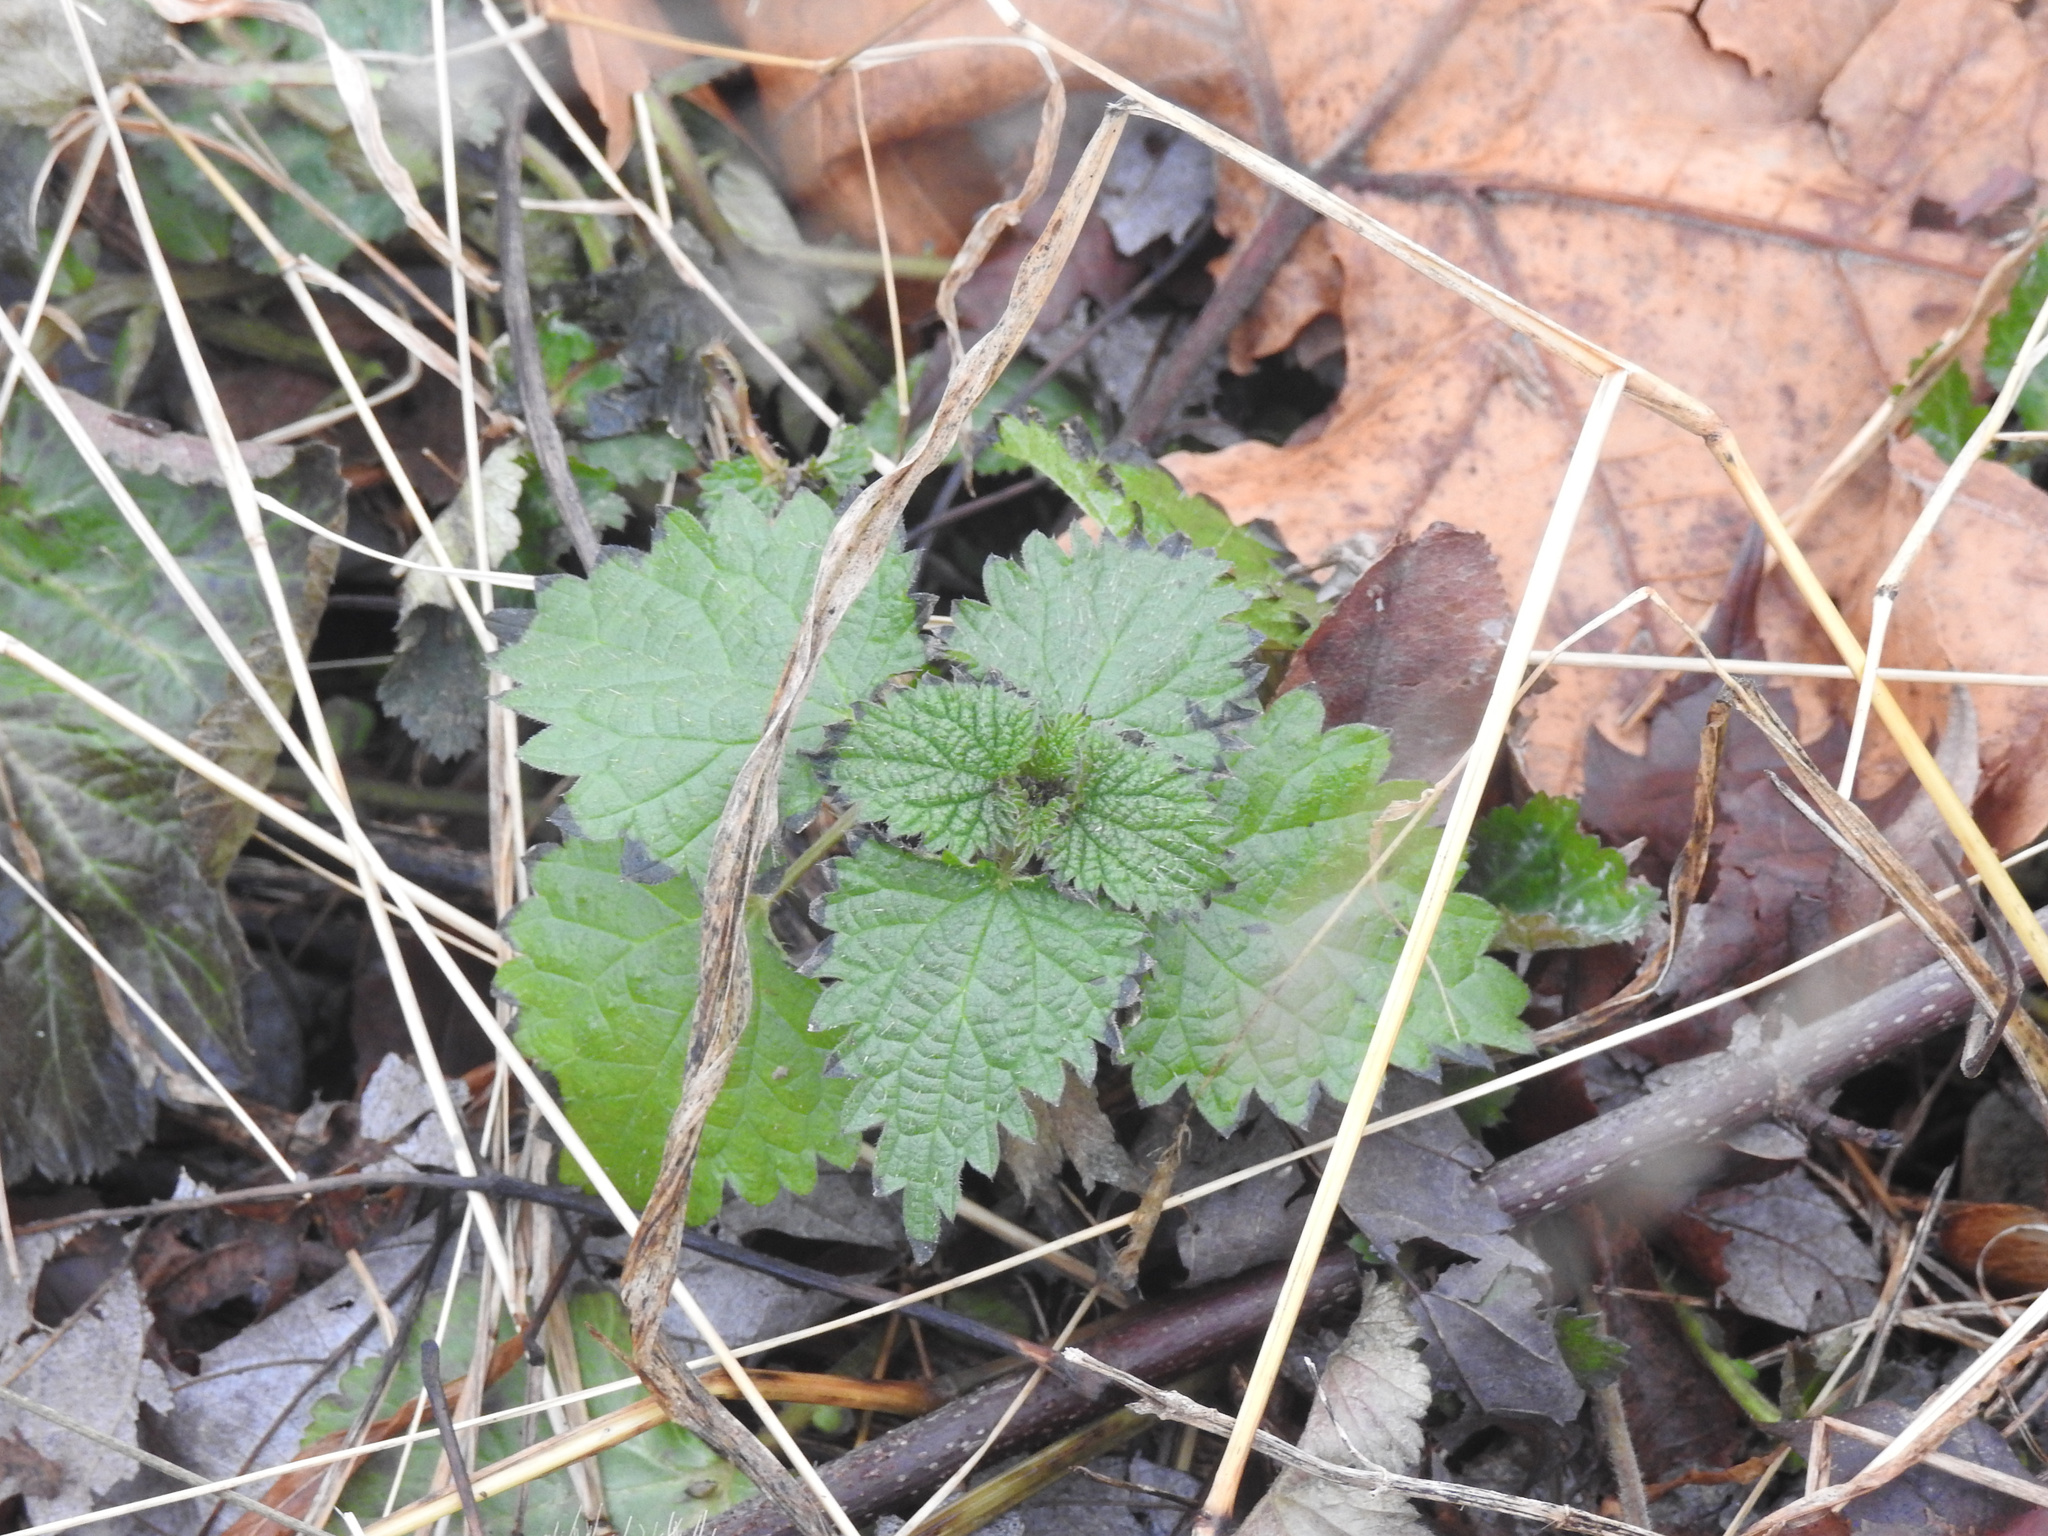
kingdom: Plantae
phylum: Tracheophyta
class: Magnoliopsida
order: Rosales
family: Urticaceae
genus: Urtica
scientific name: Urtica dioica
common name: Common nettle
